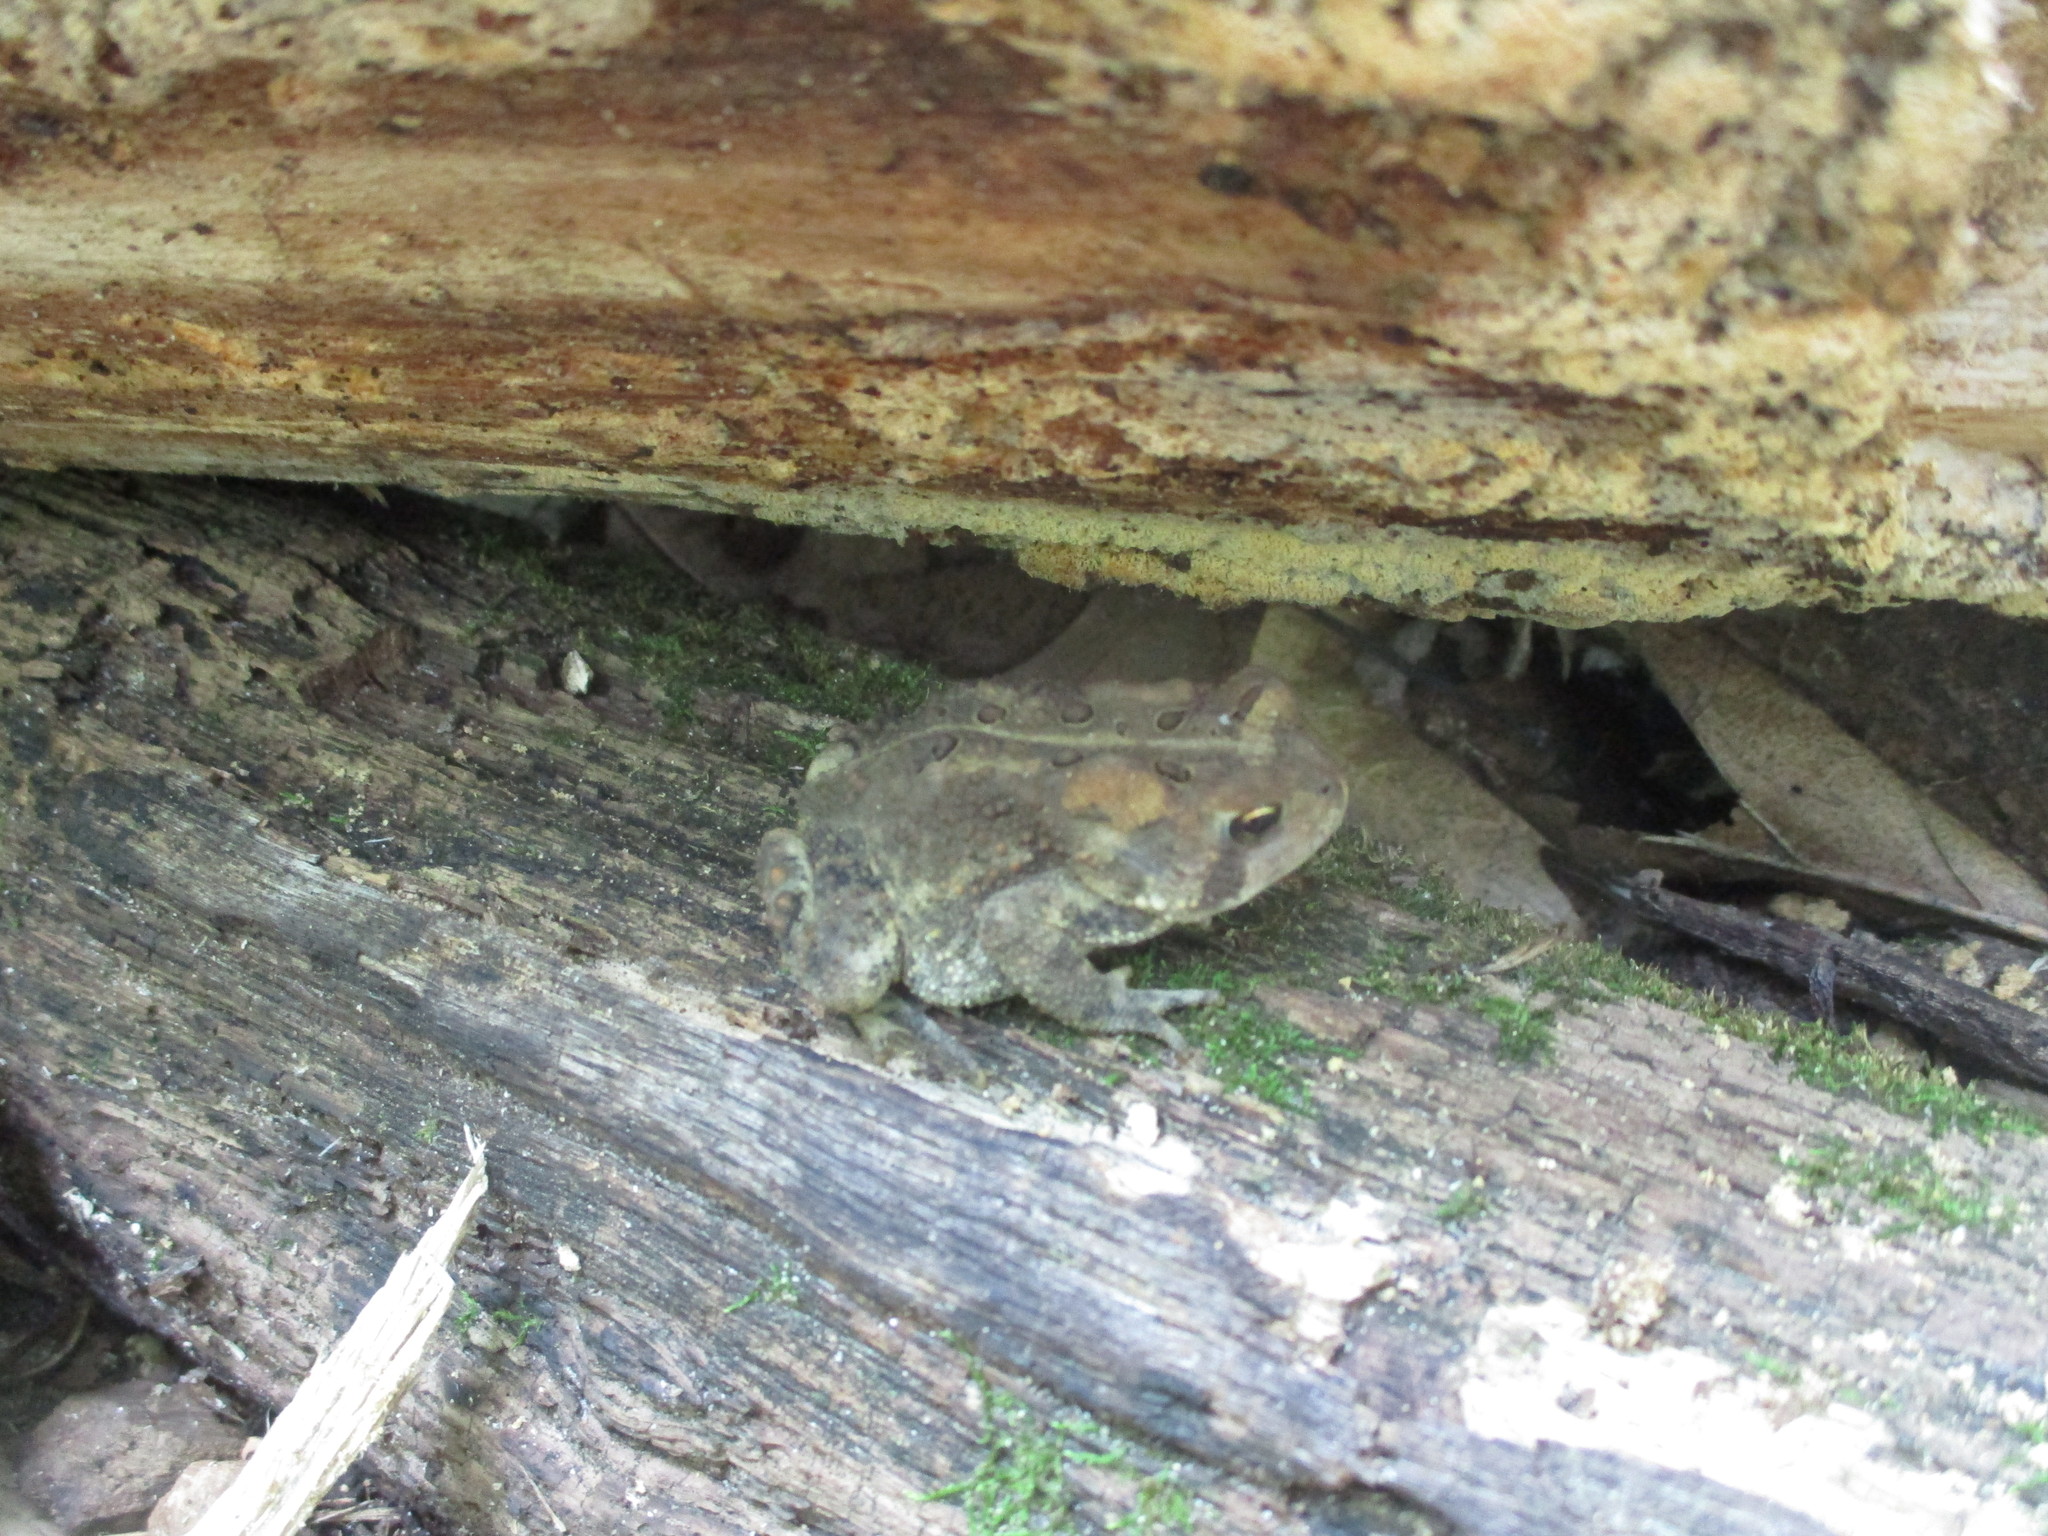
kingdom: Animalia
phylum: Chordata
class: Amphibia
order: Anura
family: Bufonidae
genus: Anaxyrus
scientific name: Anaxyrus americanus
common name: American toad
